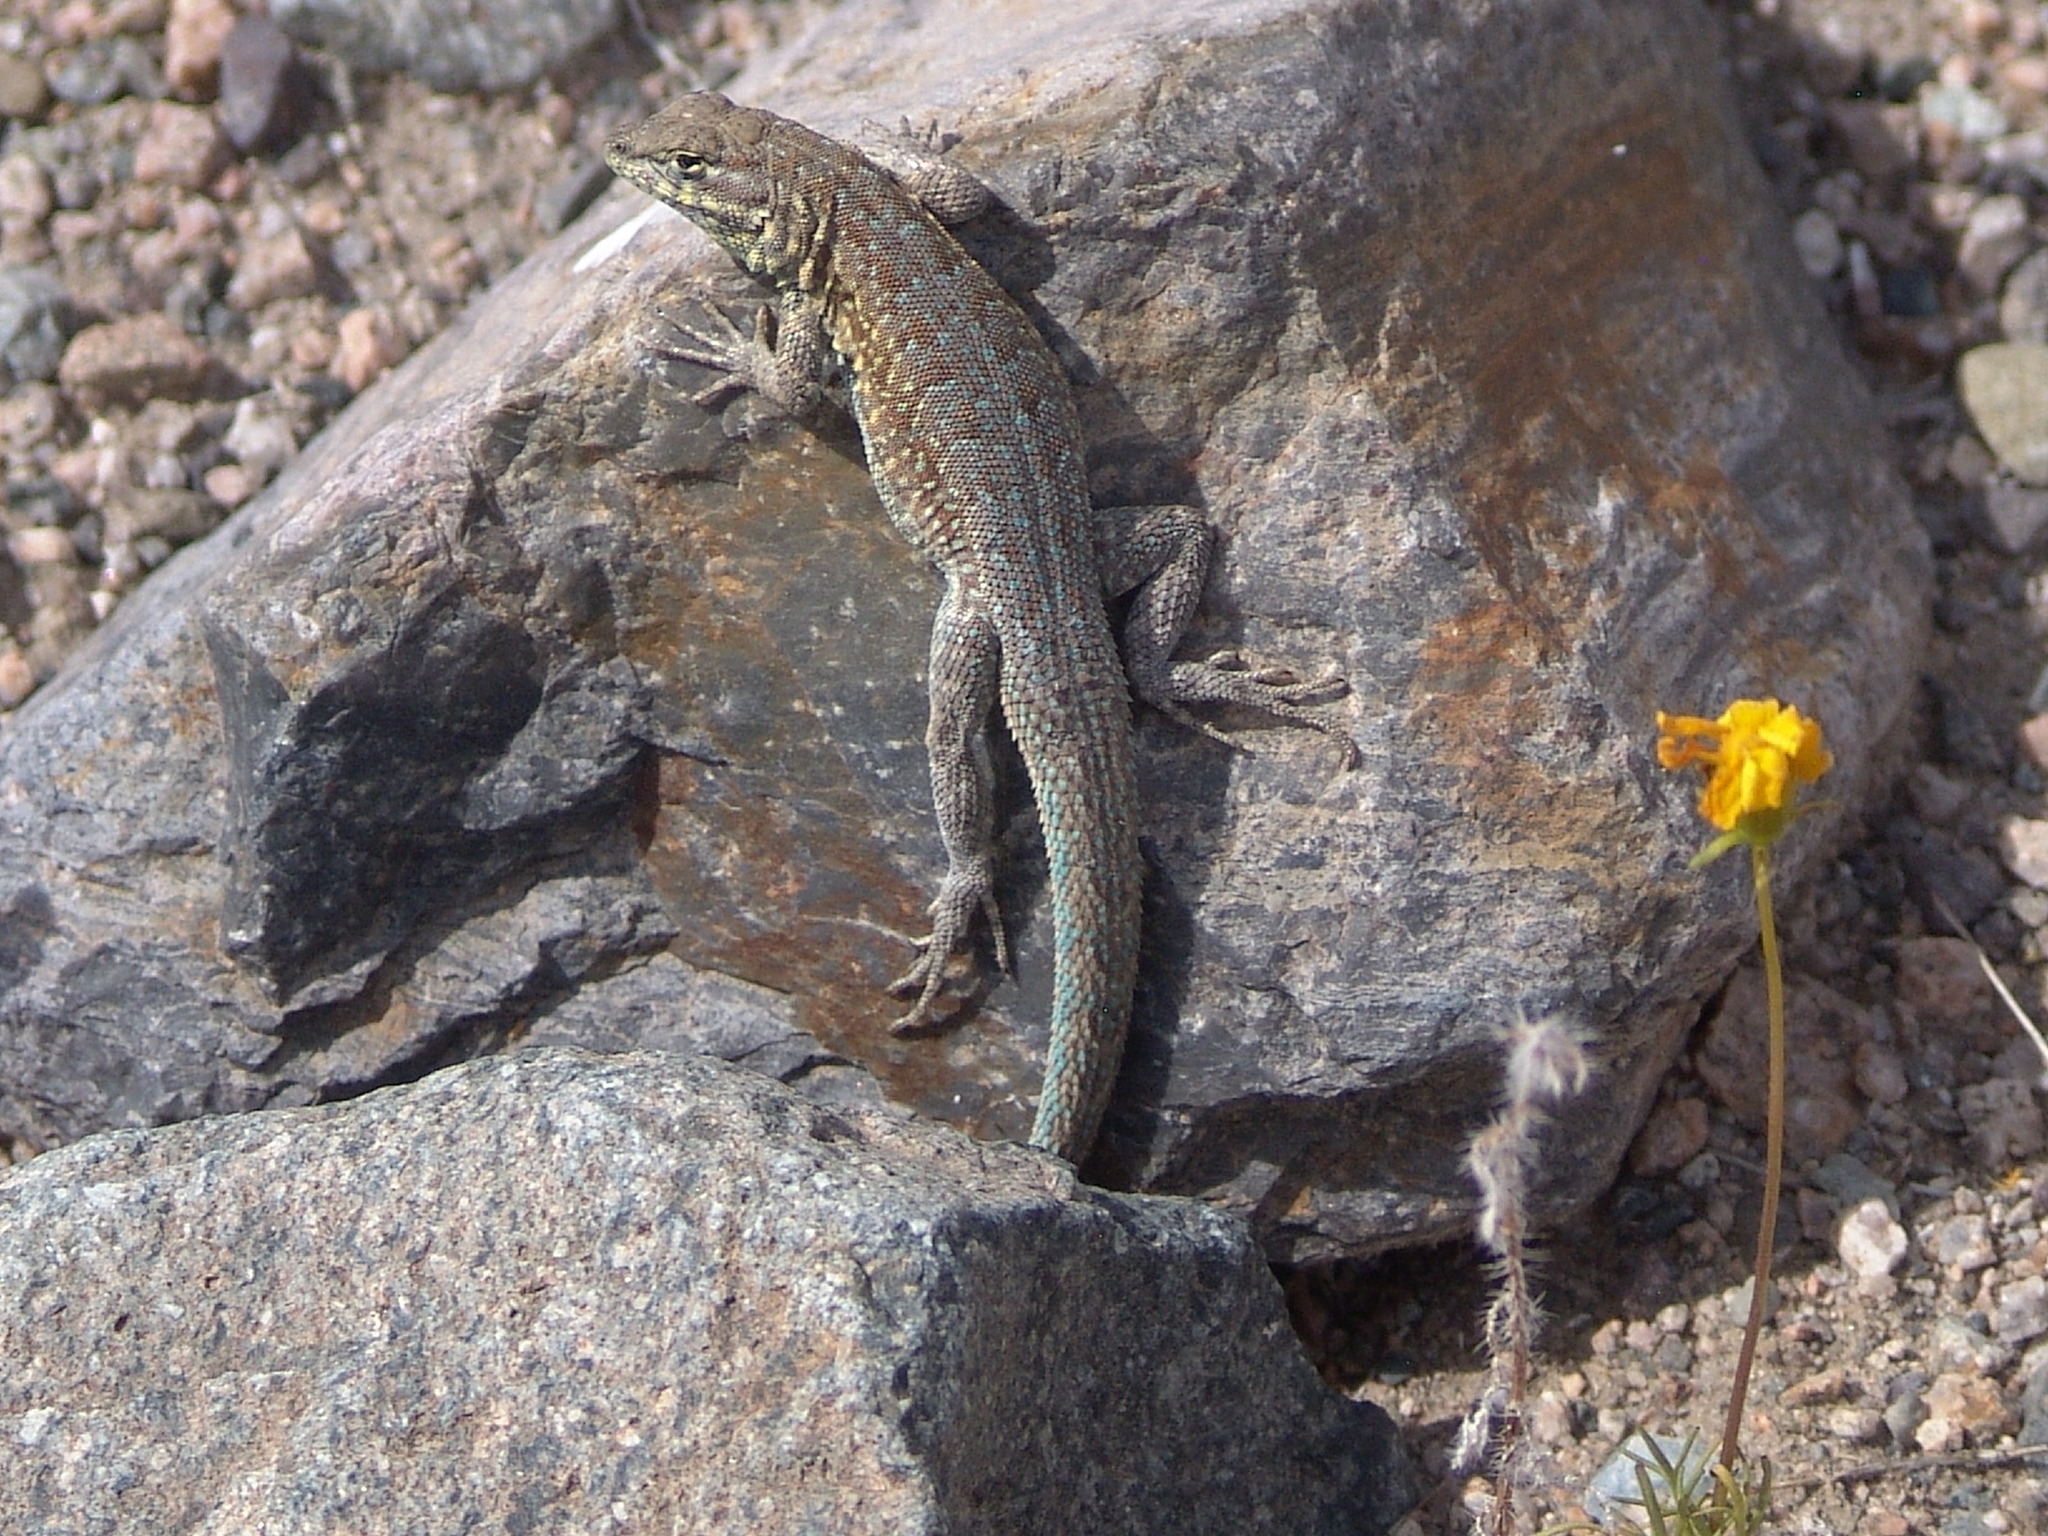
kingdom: Animalia
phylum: Chordata
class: Squamata
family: Phrynosomatidae
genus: Uta
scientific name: Uta stansburiana
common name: Side-blotched lizard
